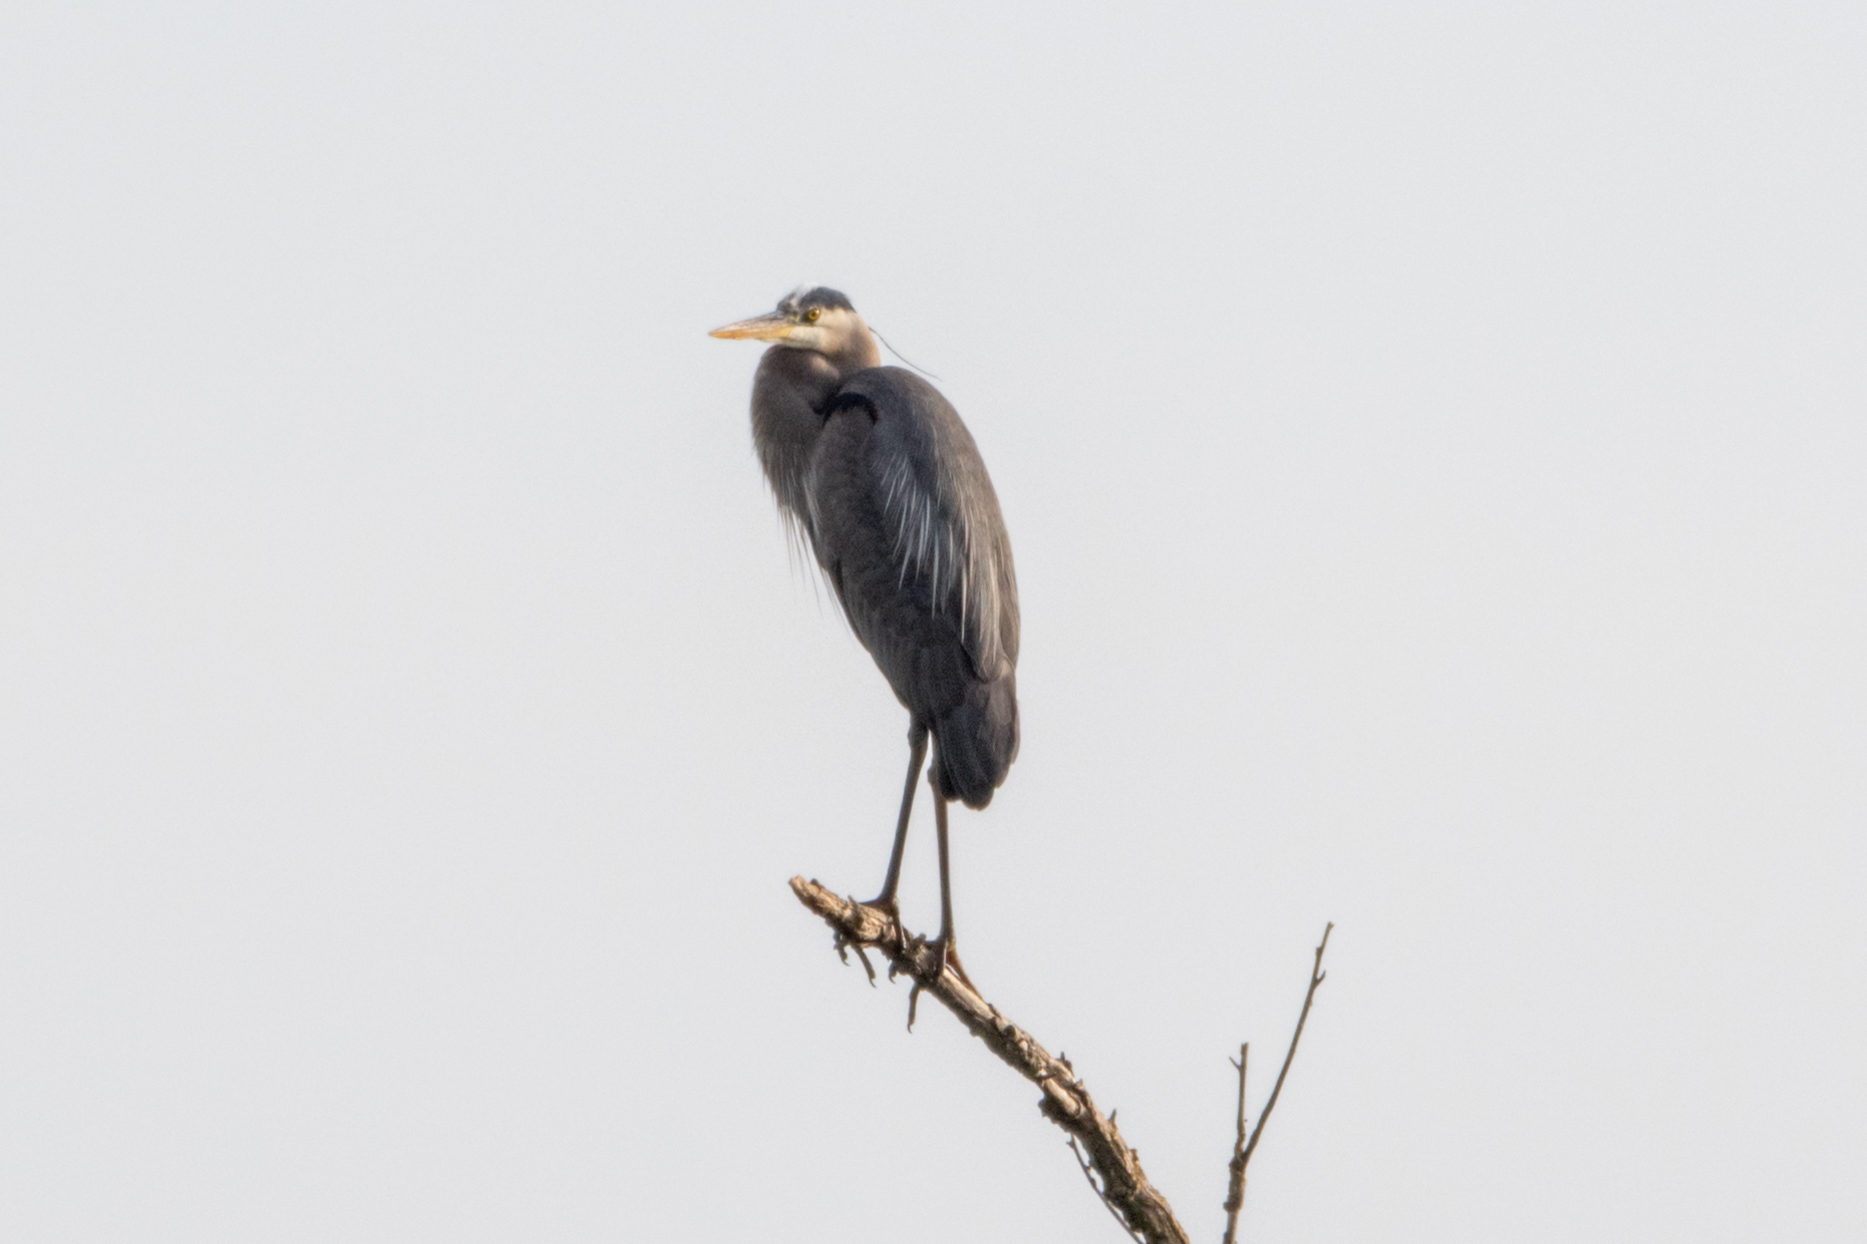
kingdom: Animalia
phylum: Chordata
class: Aves
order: Pelecaniformes
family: Ardeidae
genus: Ardea
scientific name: Ardea herodias
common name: Great blue heron
